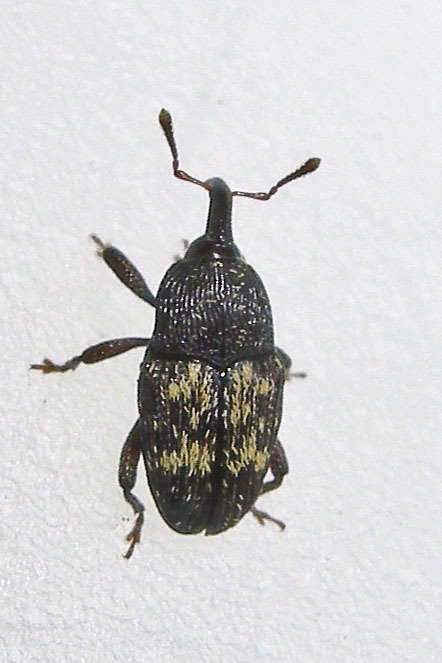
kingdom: Animalia
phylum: Arthropoda
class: Insecta
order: Coleoptera
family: Curculionidae
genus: Glyptobaris
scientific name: Glyptobaris lecontei
